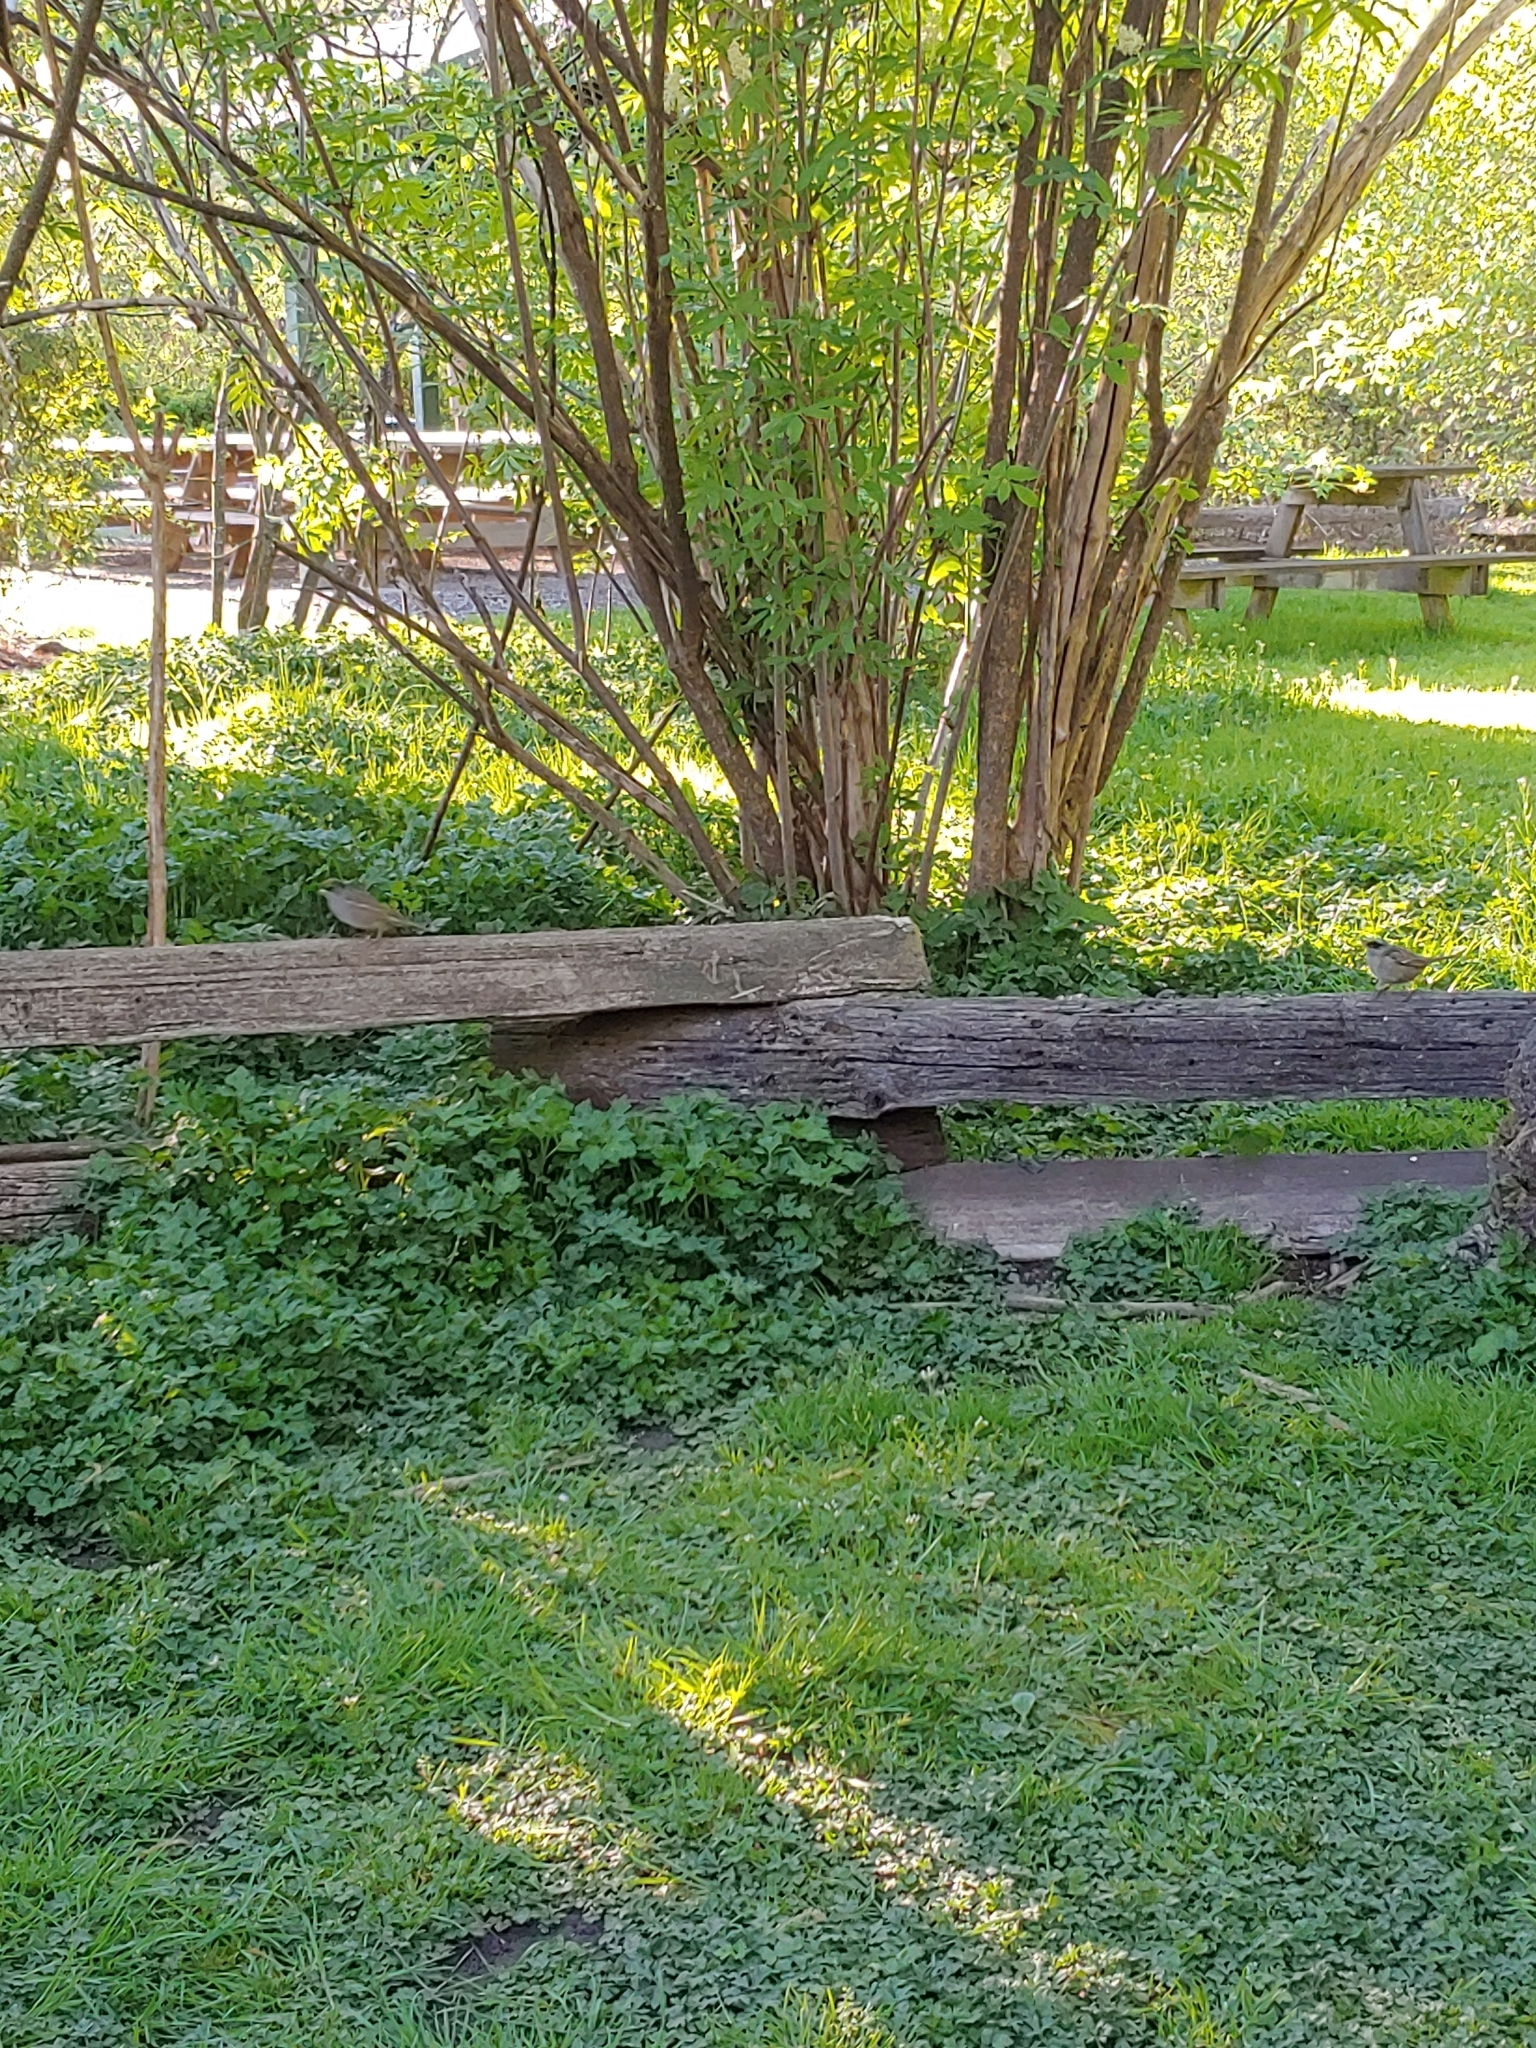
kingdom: Animalia
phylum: Chordata
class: Aves
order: Passeriformes
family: Passerellidae
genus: Zonotrichia
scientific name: Zonotrichia atricapilla
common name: Golden-crowned sparrow
